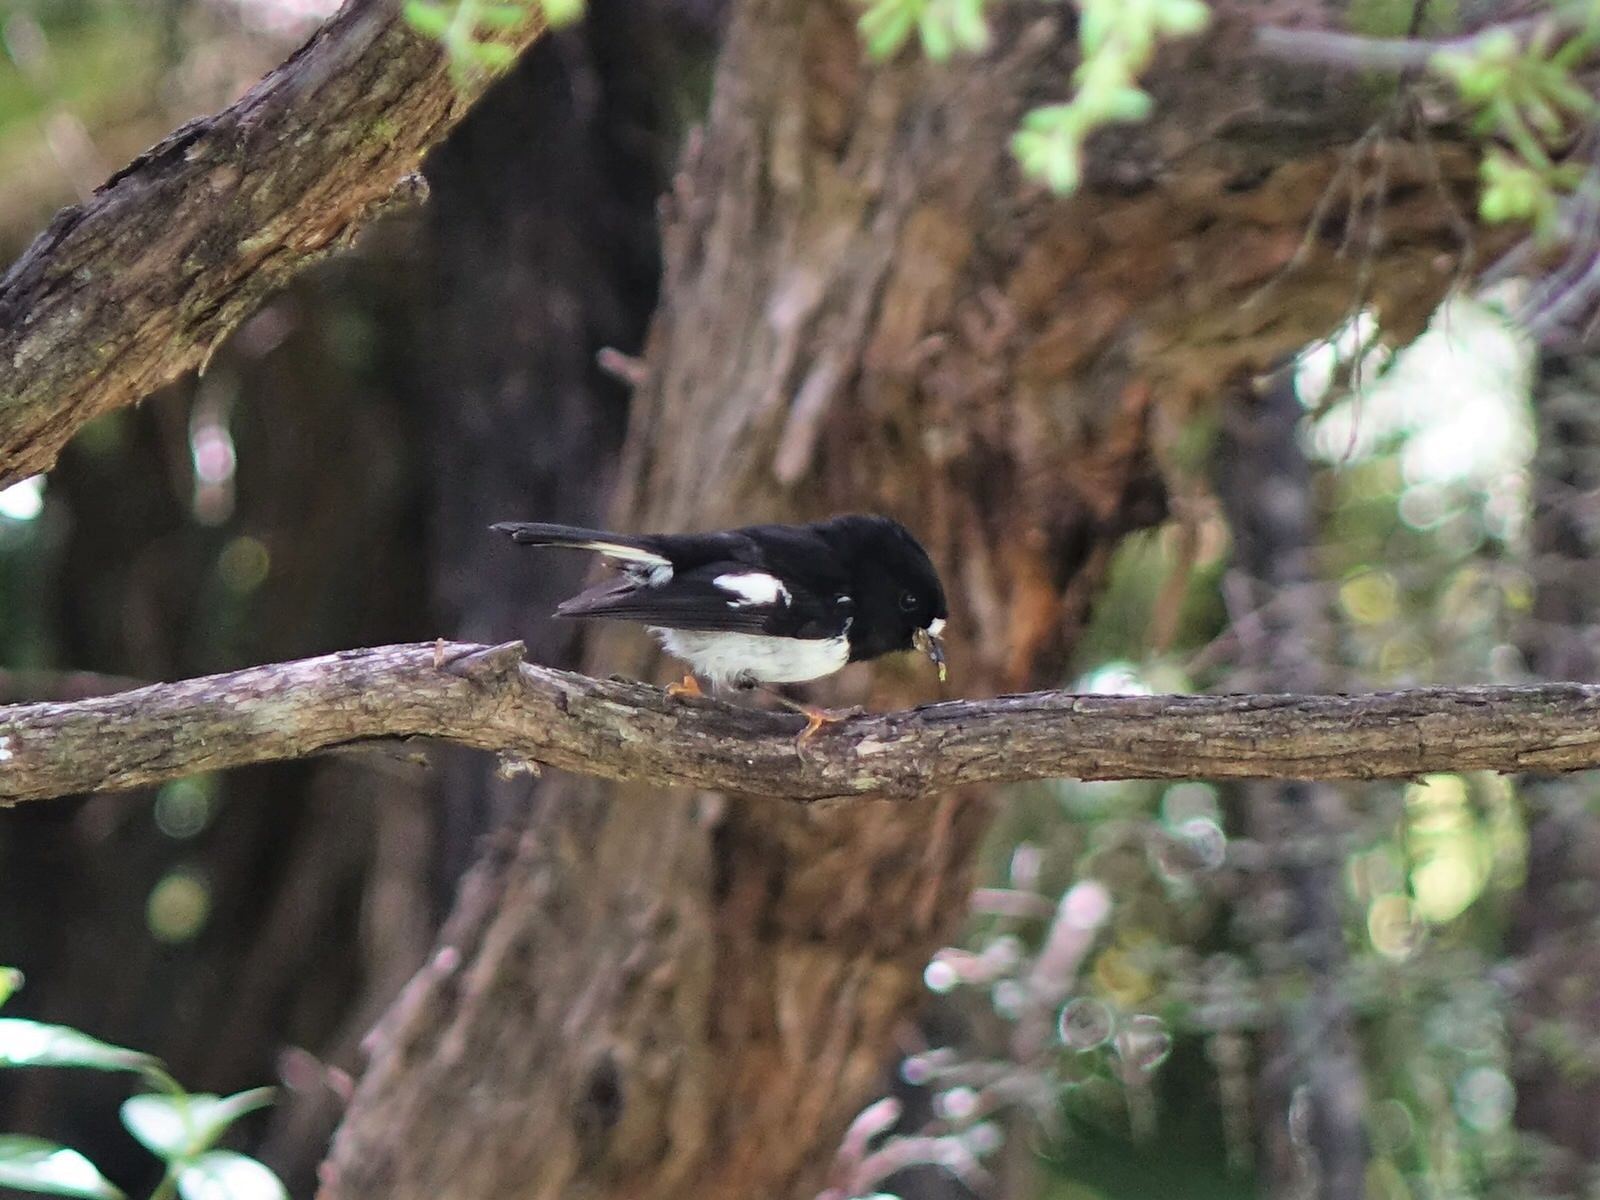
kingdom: Animalia
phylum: Chordata
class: Aves
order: Passeriformes
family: Petroicidae
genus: Petroica
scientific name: Petroica macrocephala
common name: Tomtit
